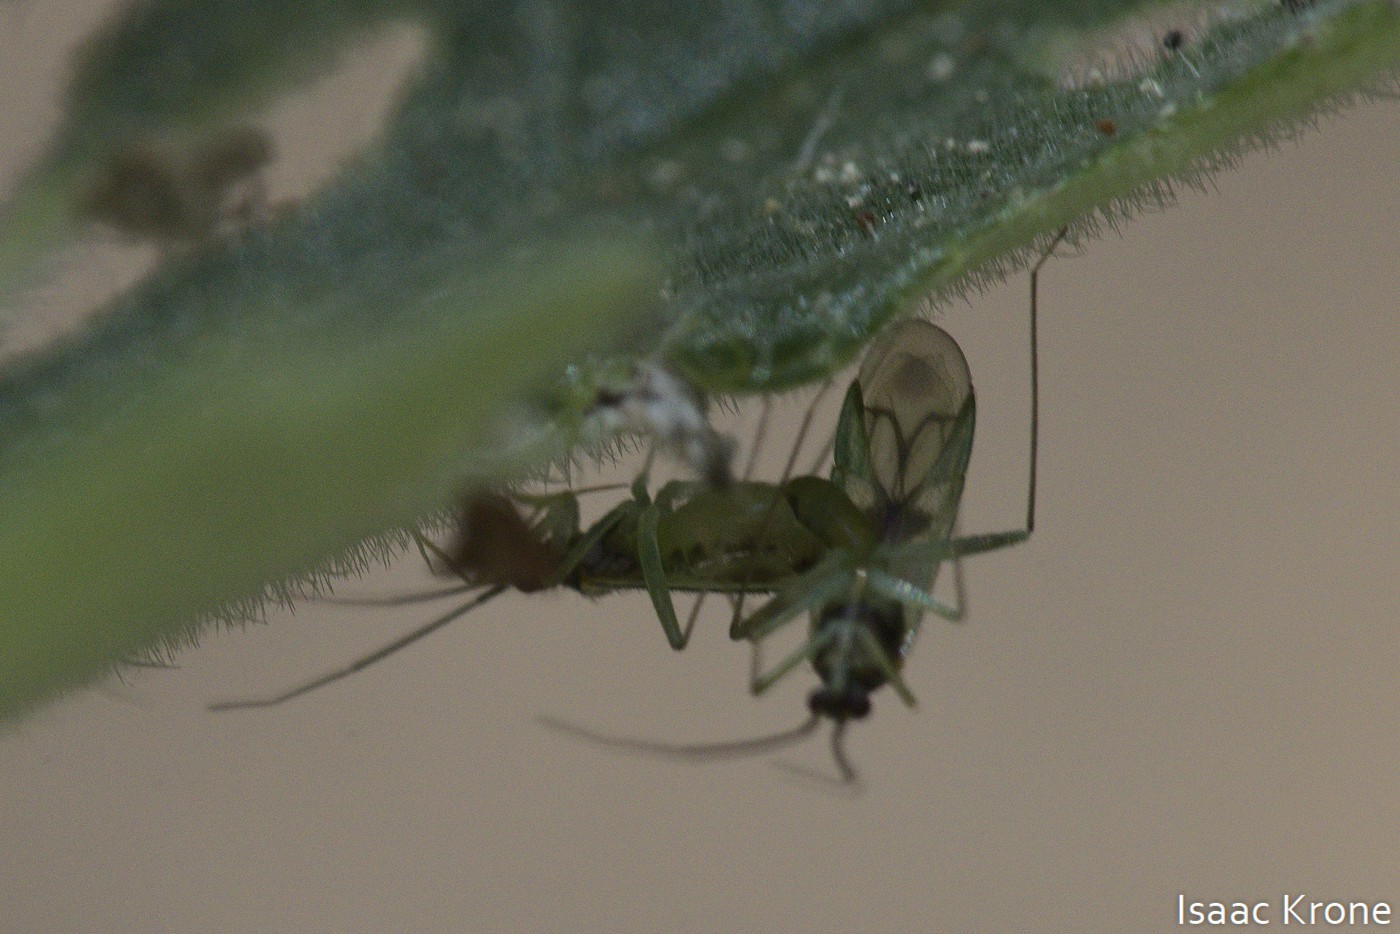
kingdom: Animalia
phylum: Arthropoda
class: Insecta
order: Hemiptera
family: Miridae
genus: Paraproba
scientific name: Paraproba pendula
